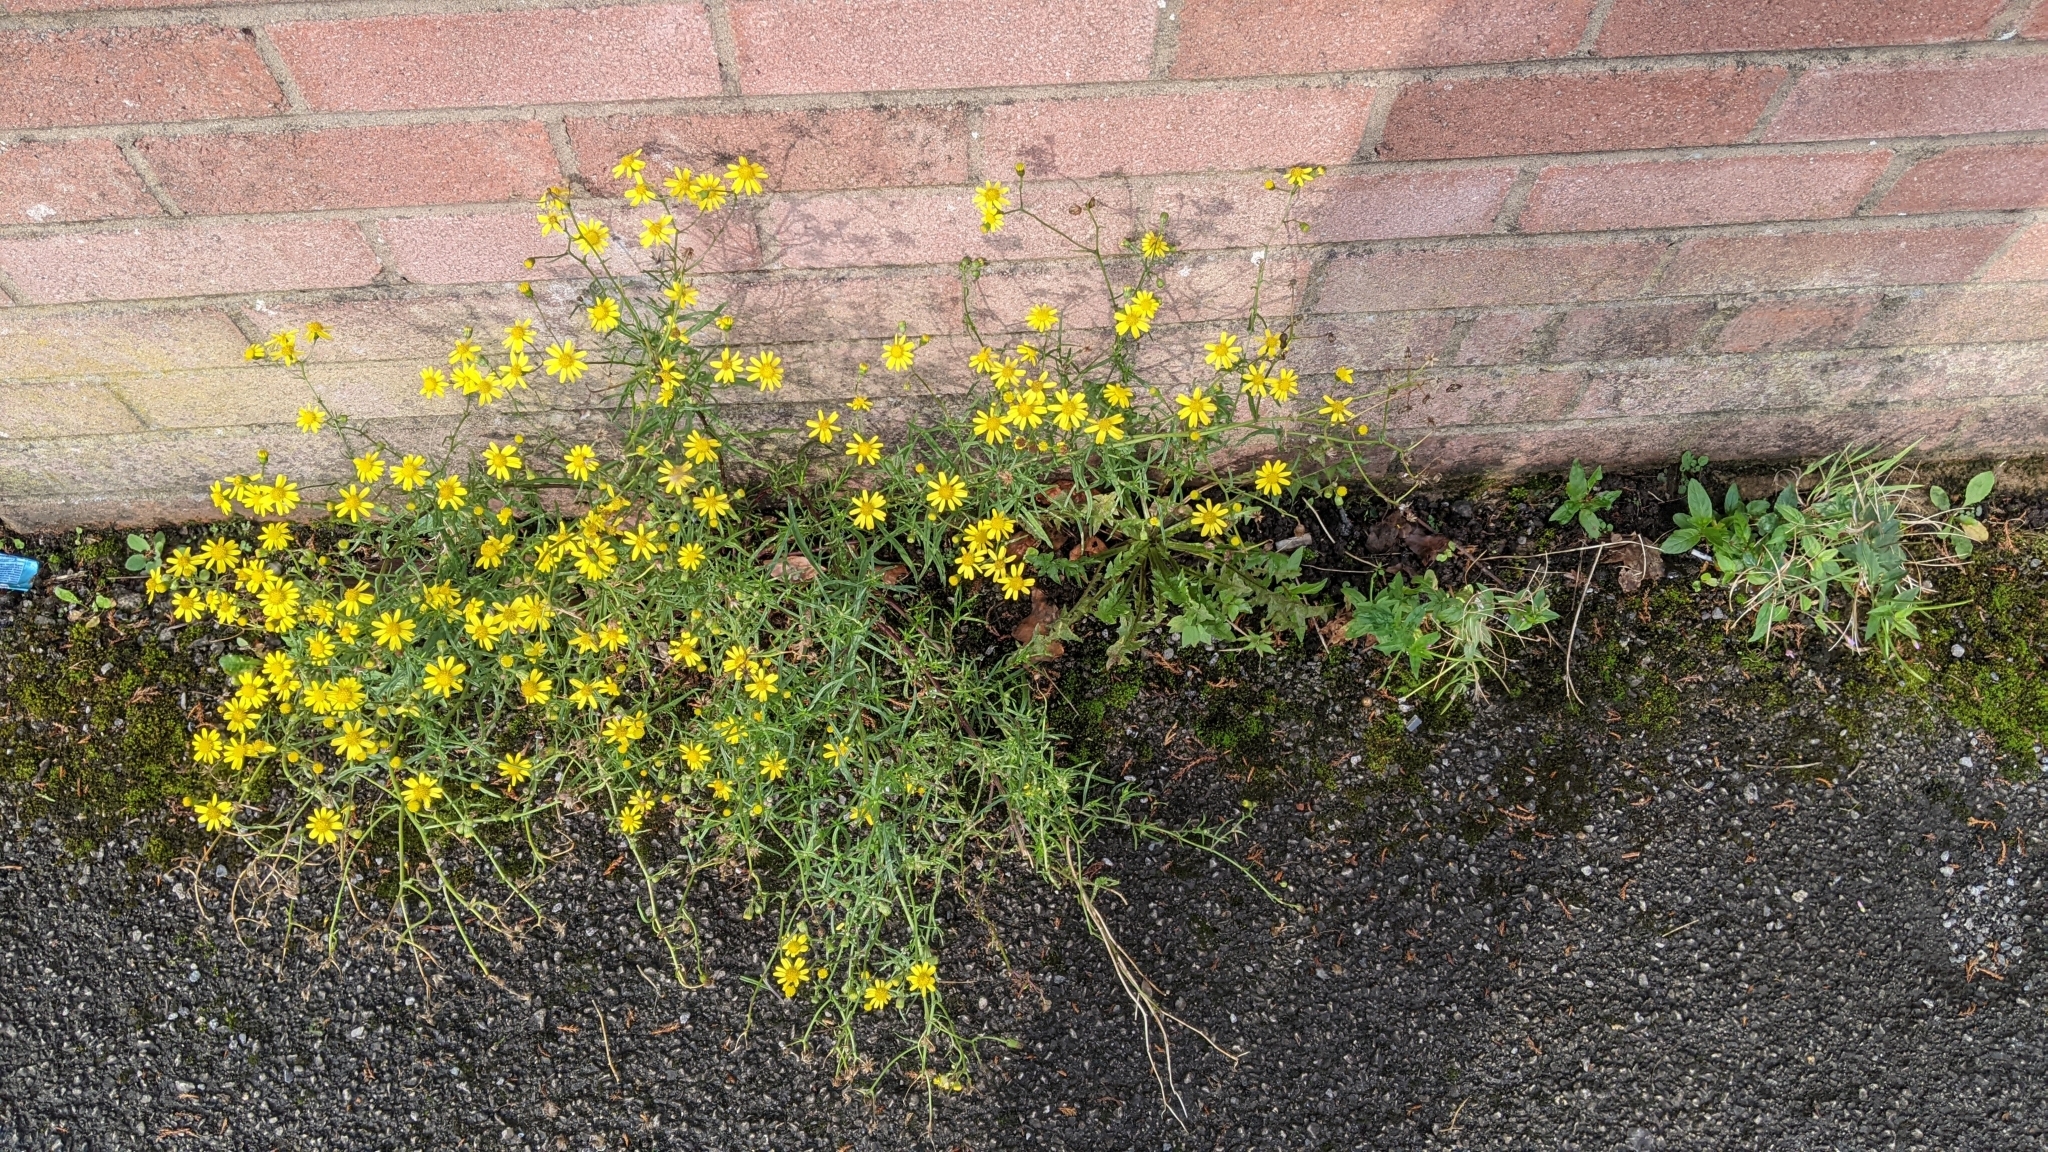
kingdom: Plantae
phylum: Tracheophyta
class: Magnoliopsida
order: Asterales
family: Asteraceae
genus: Senecio
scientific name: Senecio inaequidens
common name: Narrow-leaved ragwort
